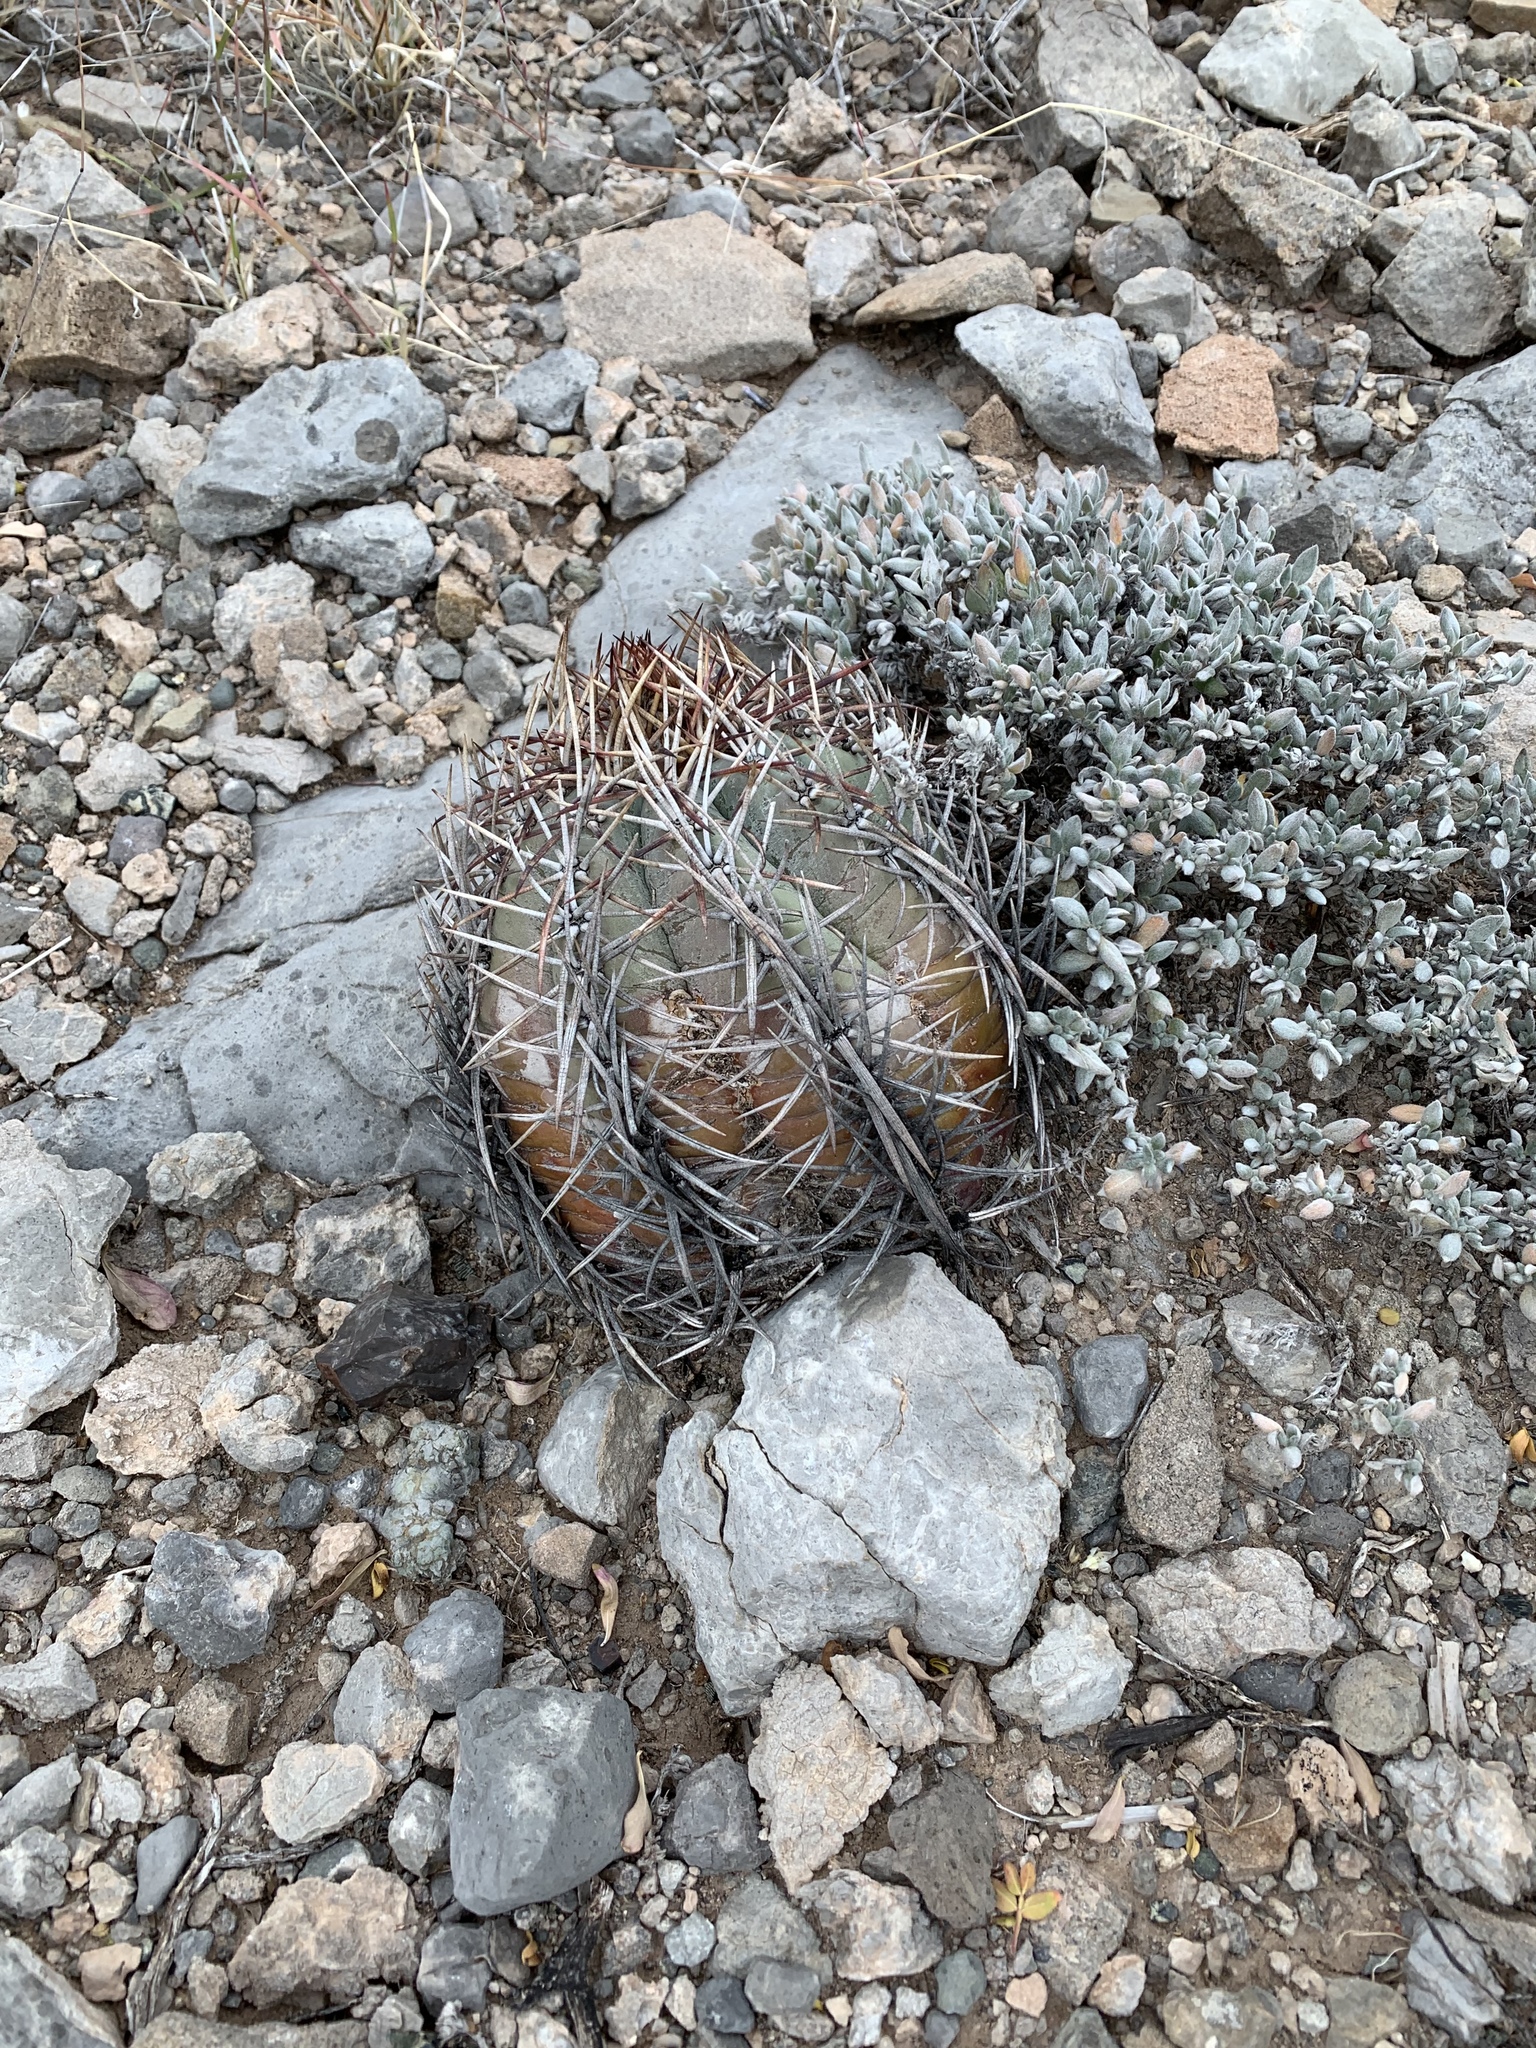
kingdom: Plantae
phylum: Tracheophyta
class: Magnoliopsida
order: Caryophyllales
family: Cactaceae
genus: Echinocactus
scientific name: Echinocactus horizonthalonius
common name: Devilshead
